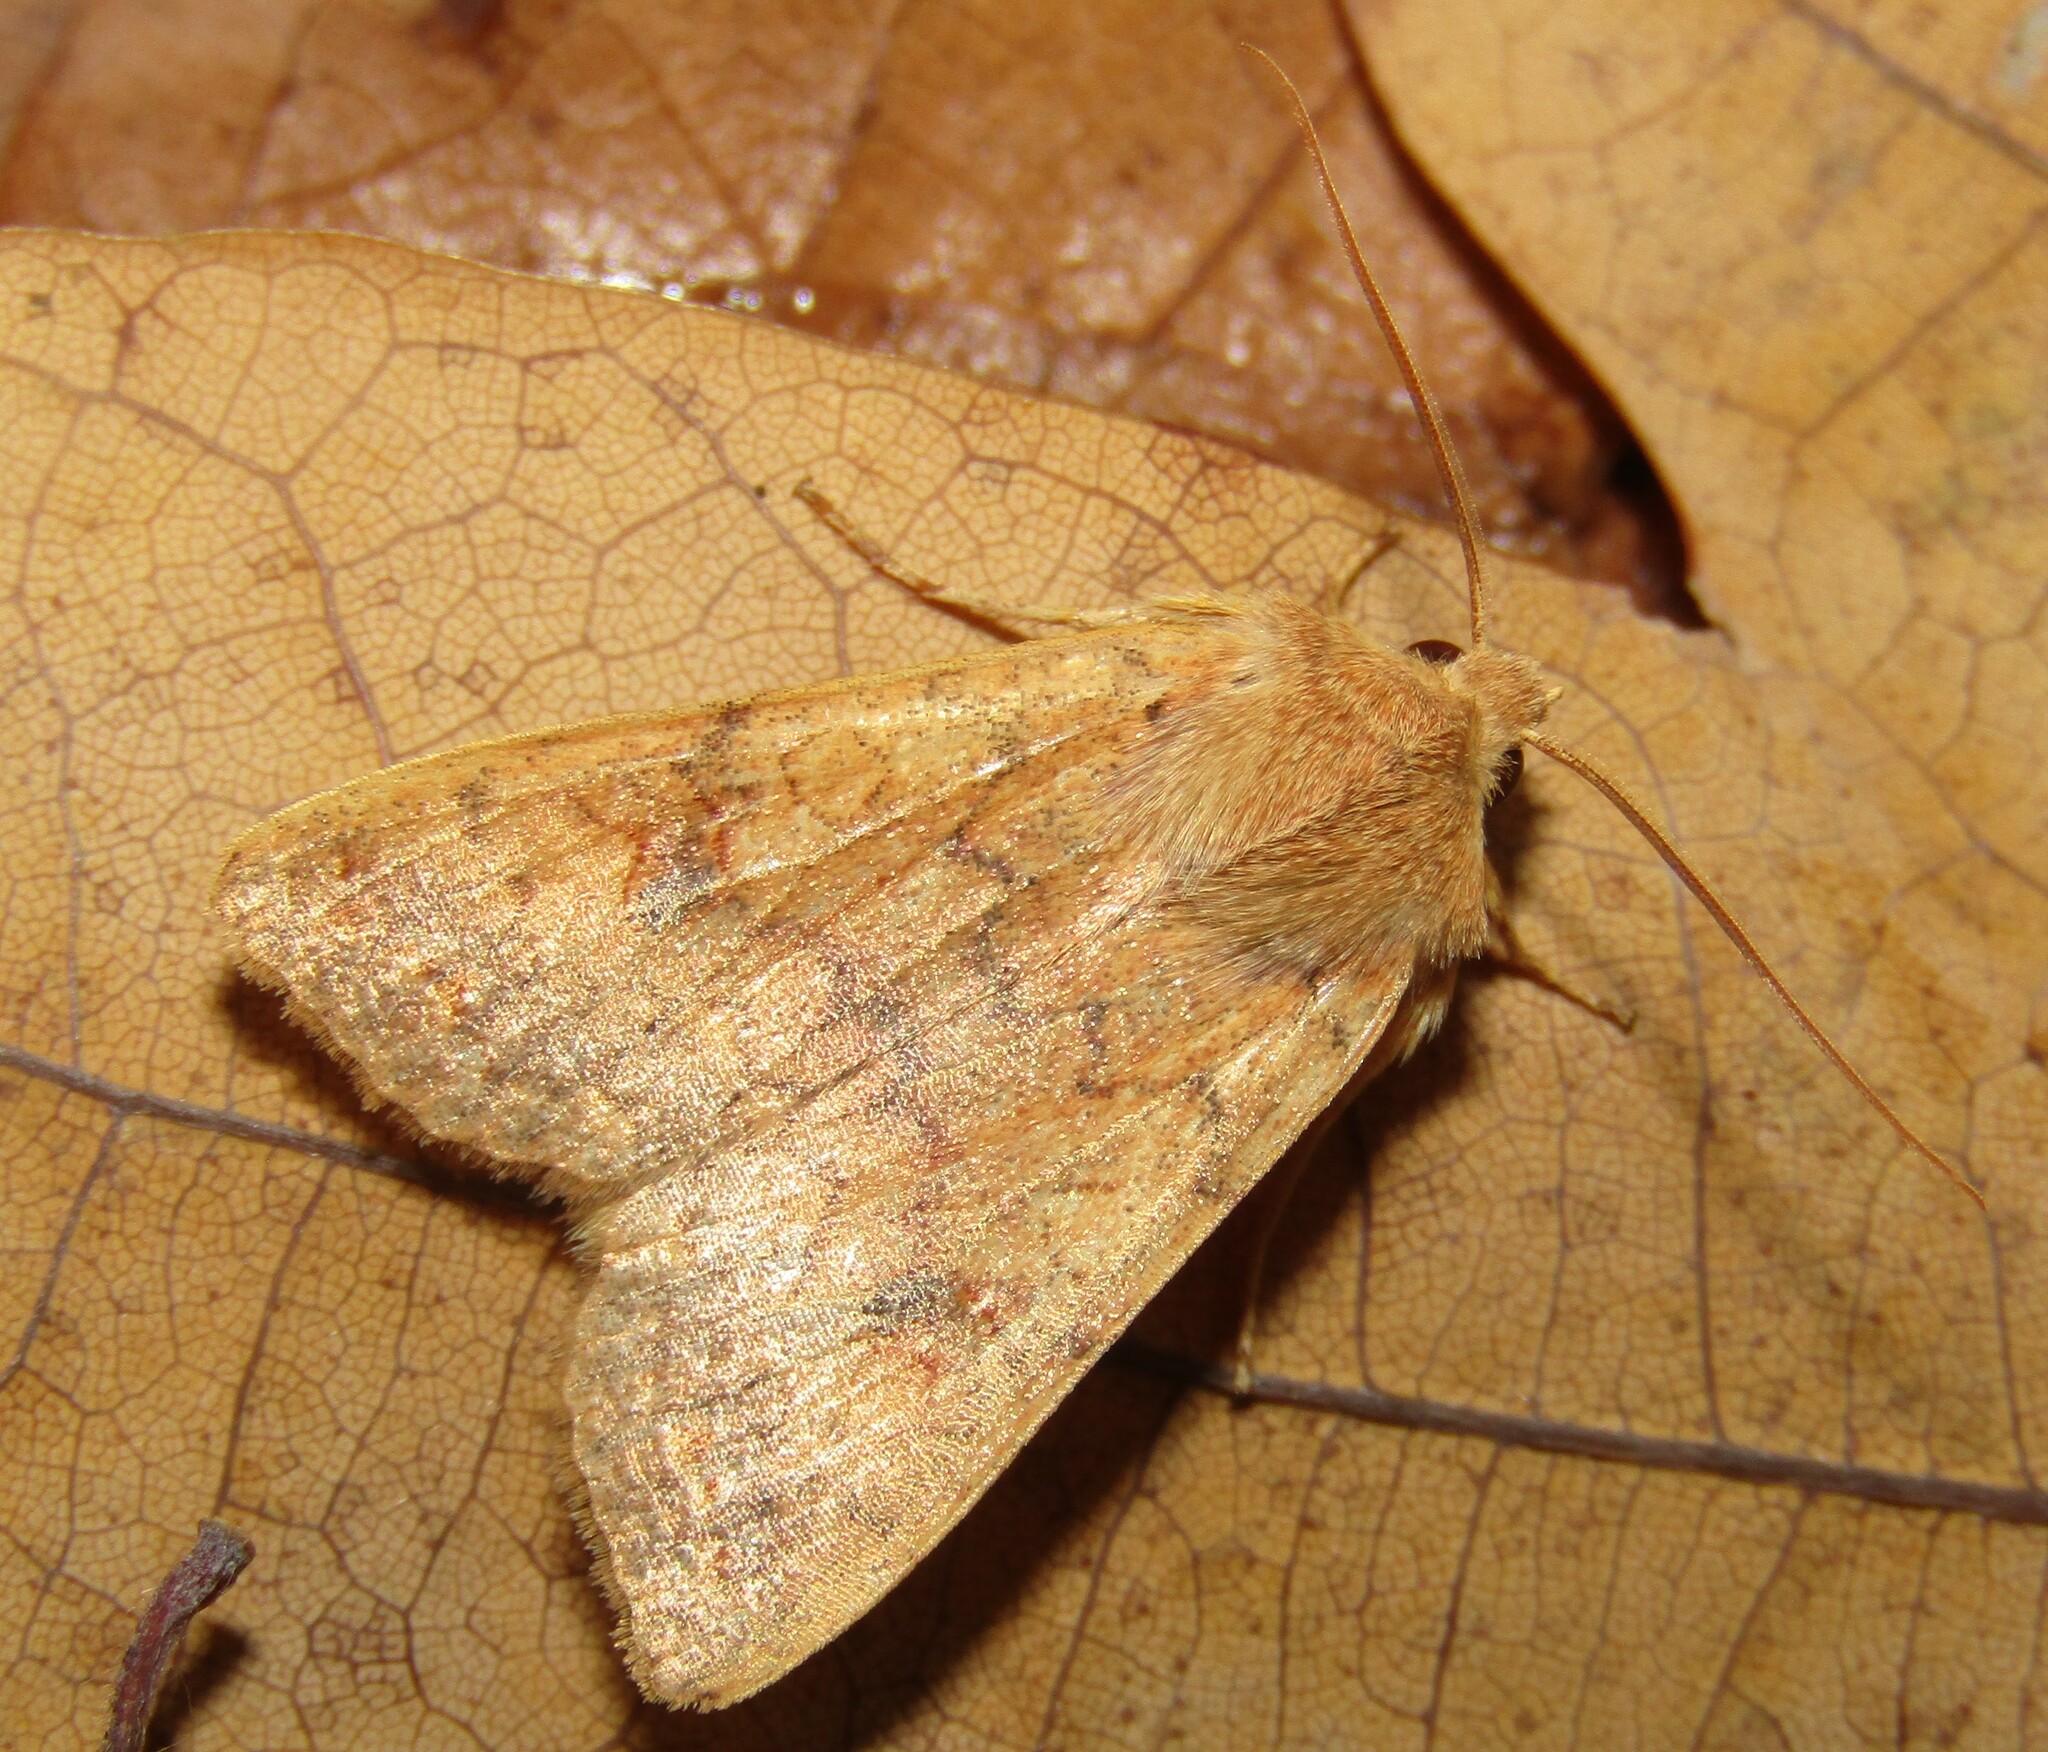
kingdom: Animalia
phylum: Arthropoda
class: Insecta
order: Lepidoptera
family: Noctuidae
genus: Sunira
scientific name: Sunira circellaris
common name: Brick
